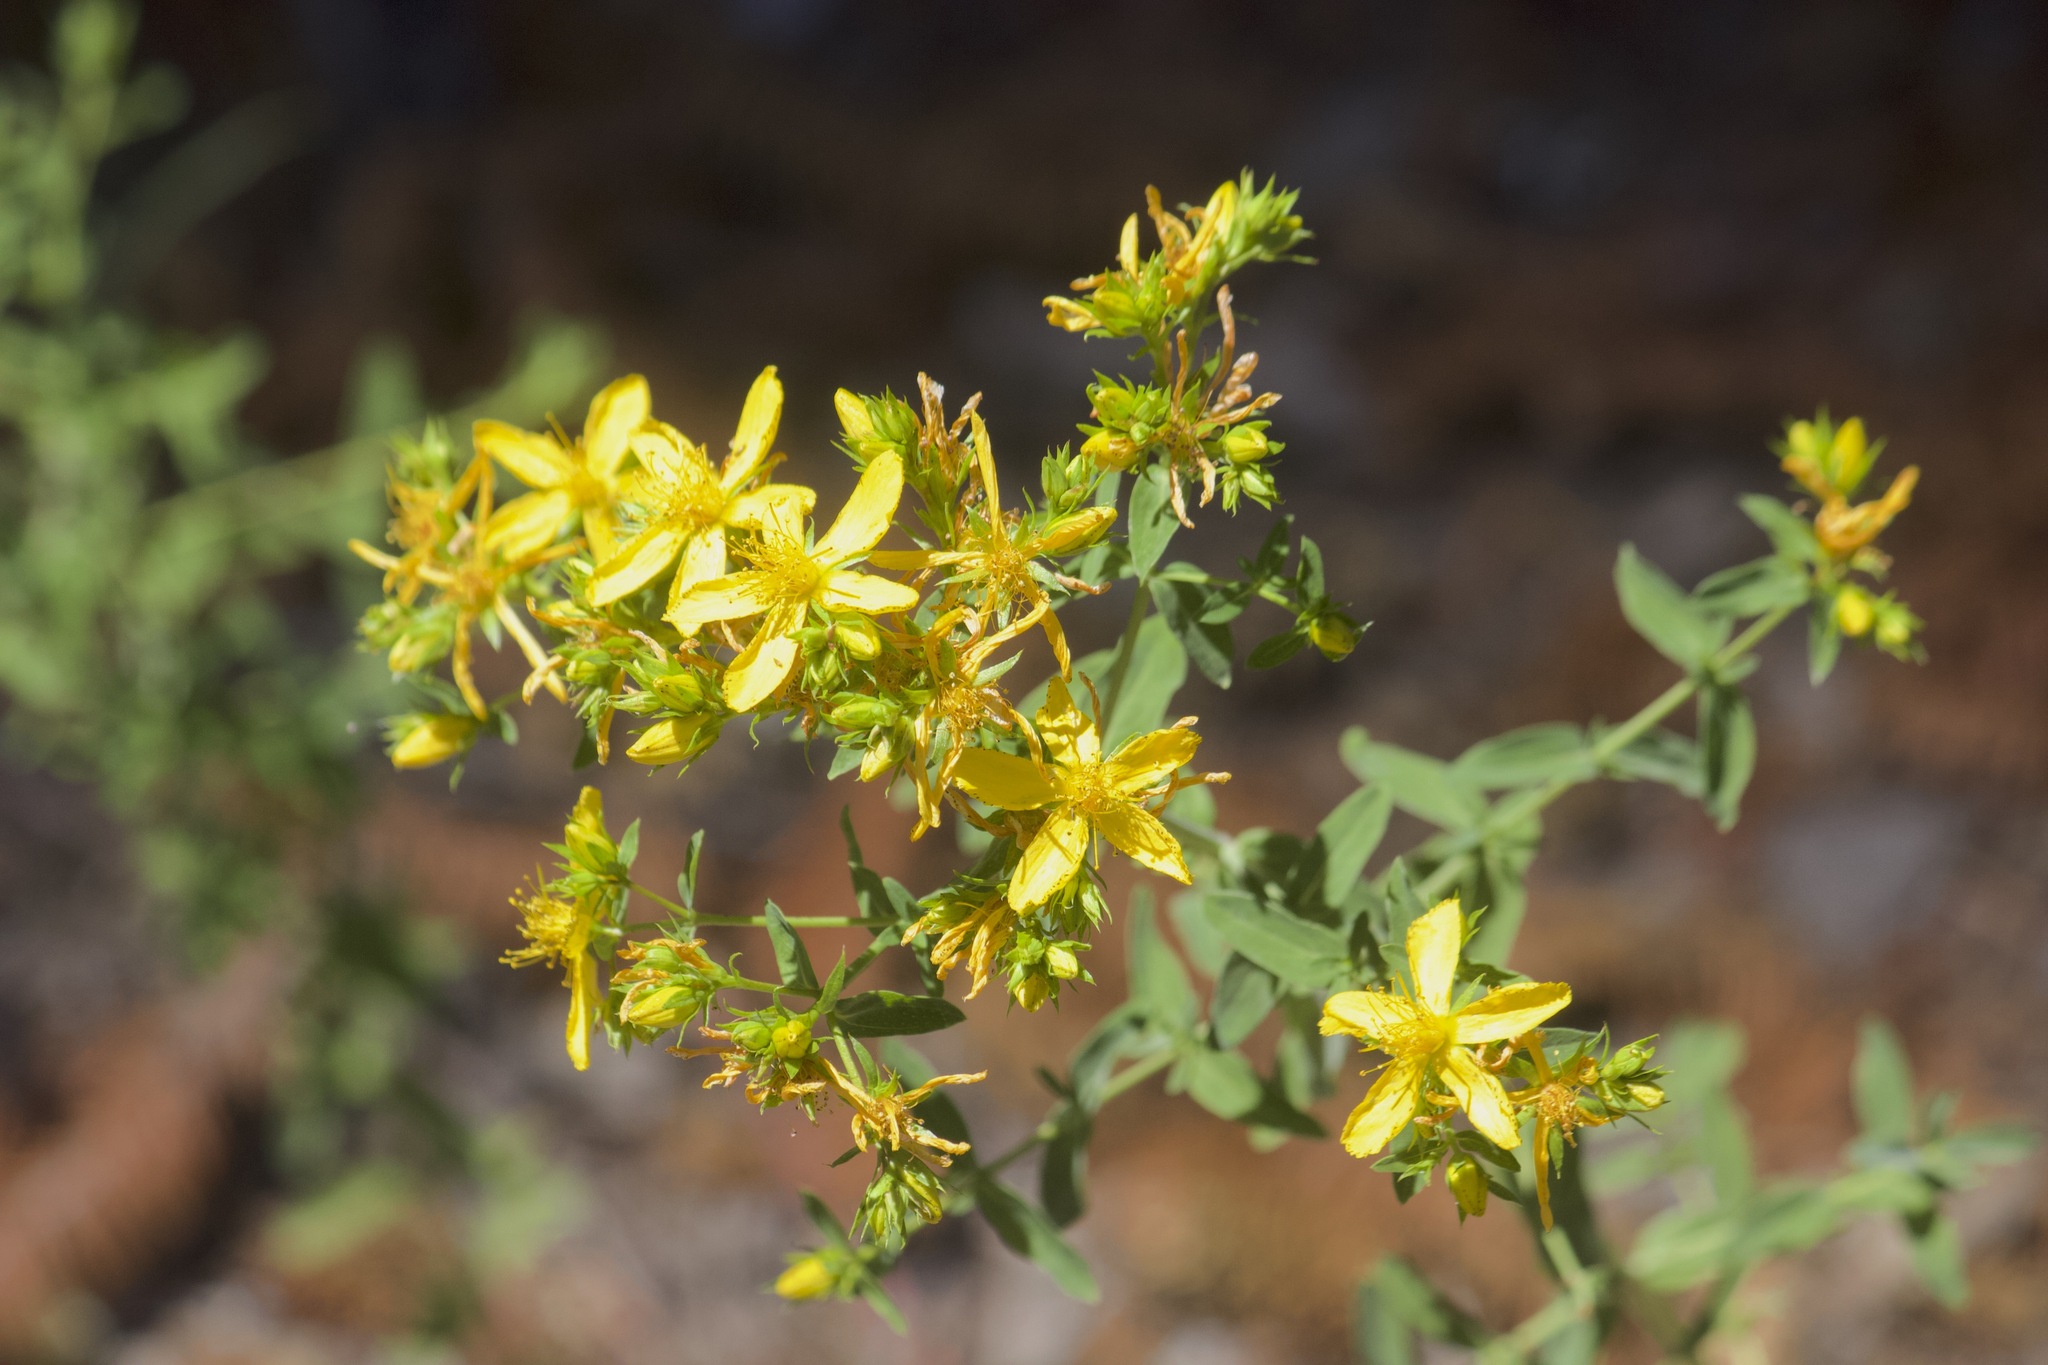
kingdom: Plantae
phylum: Tracheophyta
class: Magnoliopsida
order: Malpighiales
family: Hypericaceae
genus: Hypericum
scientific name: Hypericum perforatum
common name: Common st. johnswort
